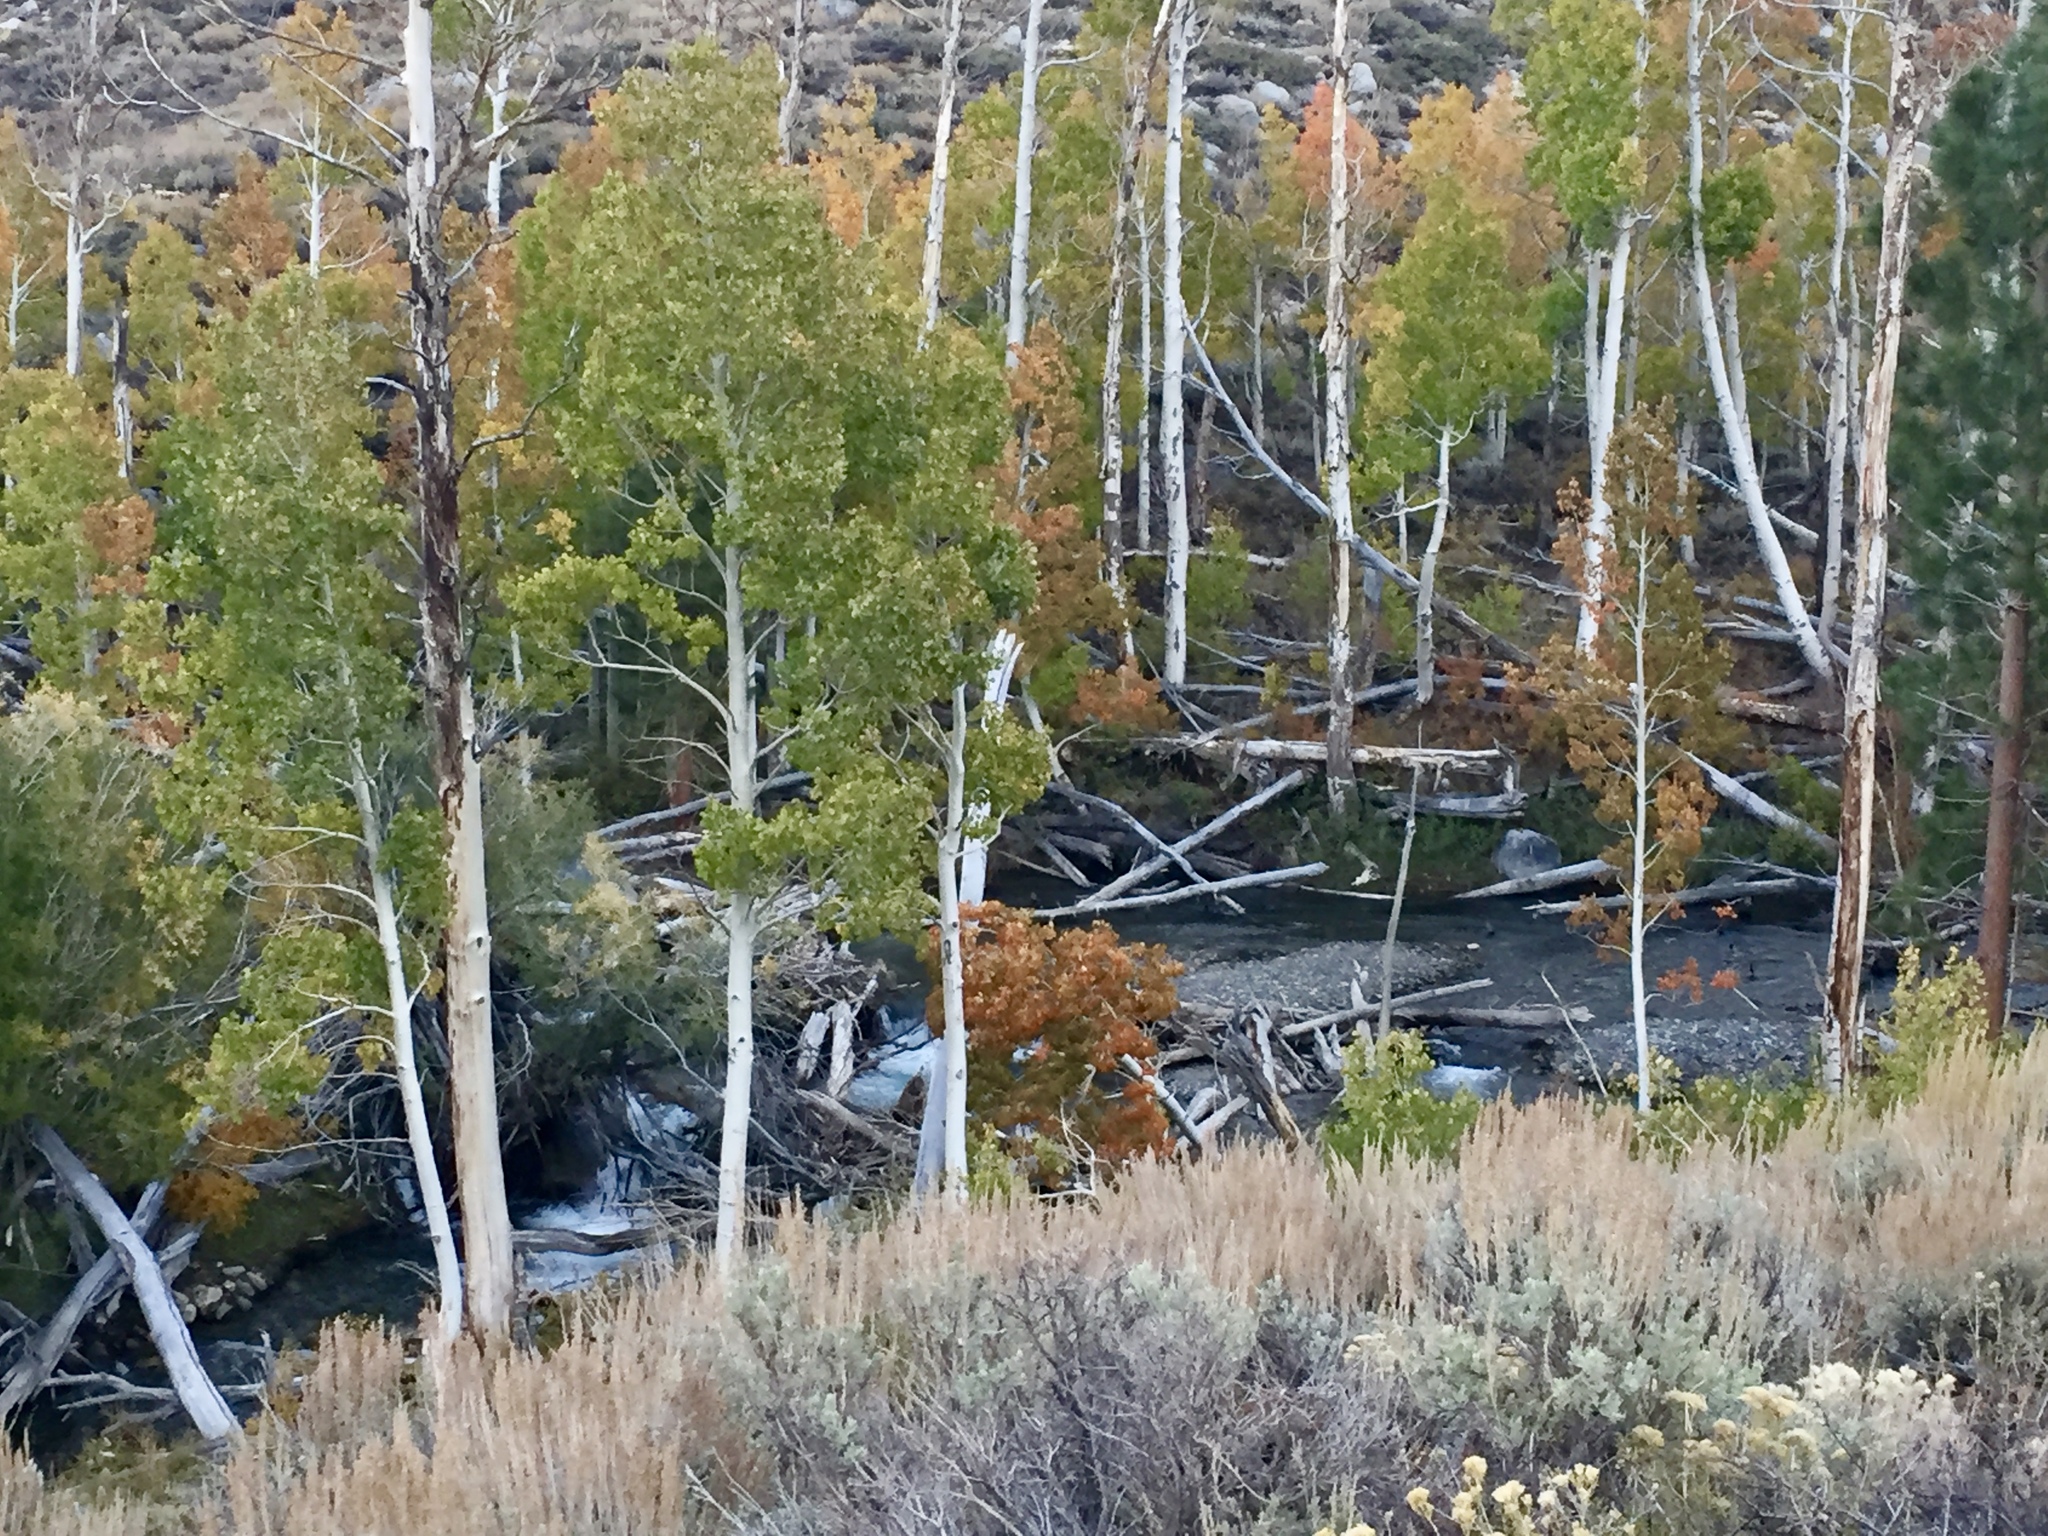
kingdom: Plantae
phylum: Tracheophyta
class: Magnoliopsida
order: Malpighiales
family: Salicaceae
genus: Populus
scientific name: Populus tremuloides
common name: Quaking aspen
